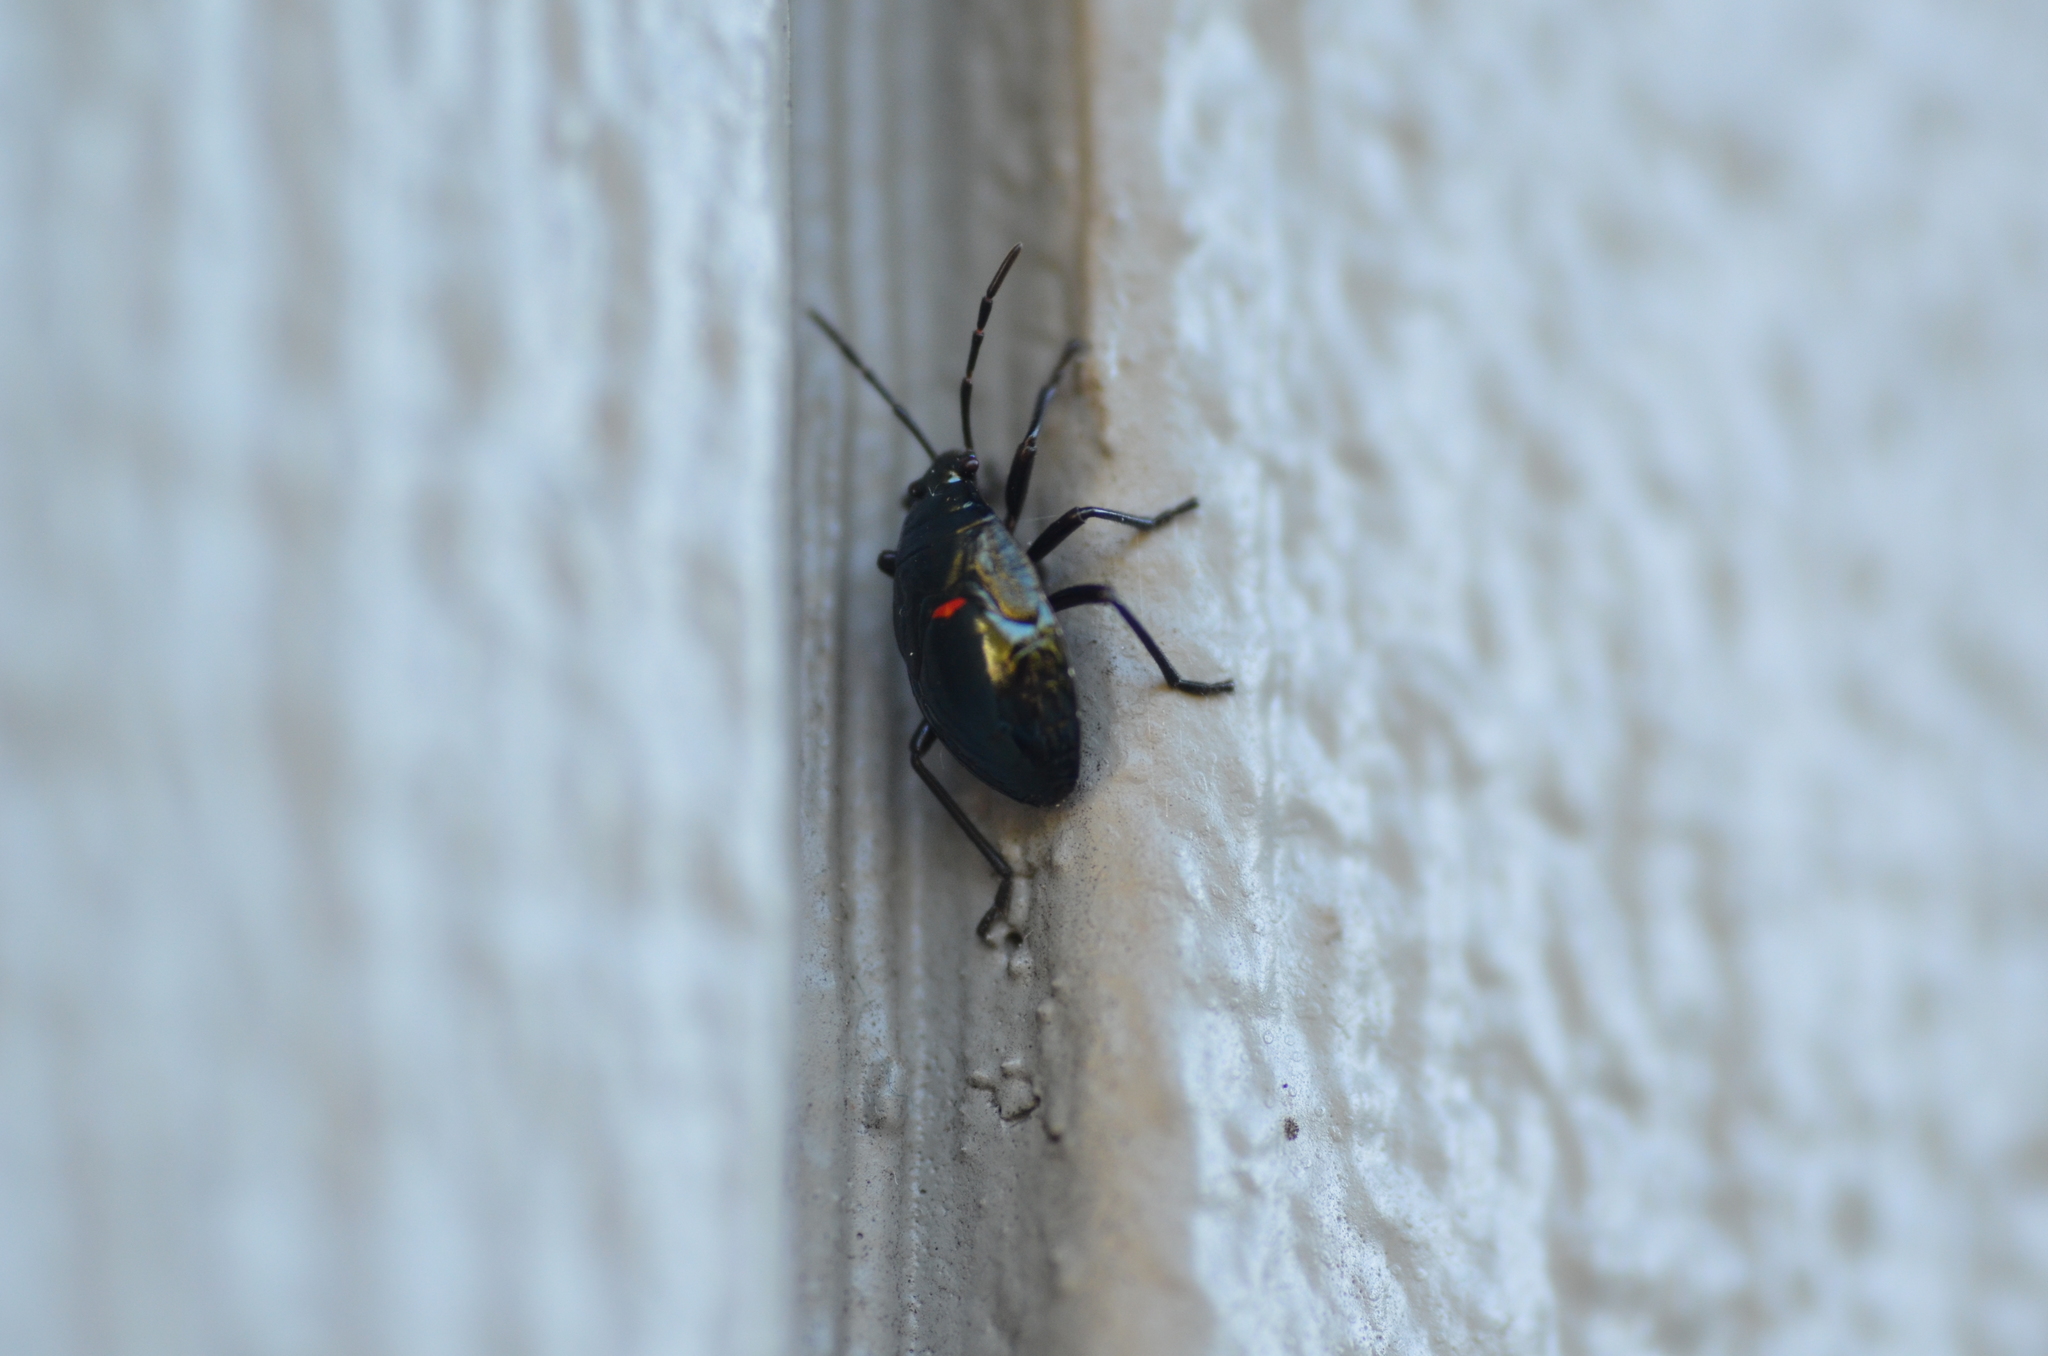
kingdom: Animalia
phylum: Arthropoda
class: Insecta
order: Hemiptera
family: Largidae
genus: Largus
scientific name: Largus californicus
